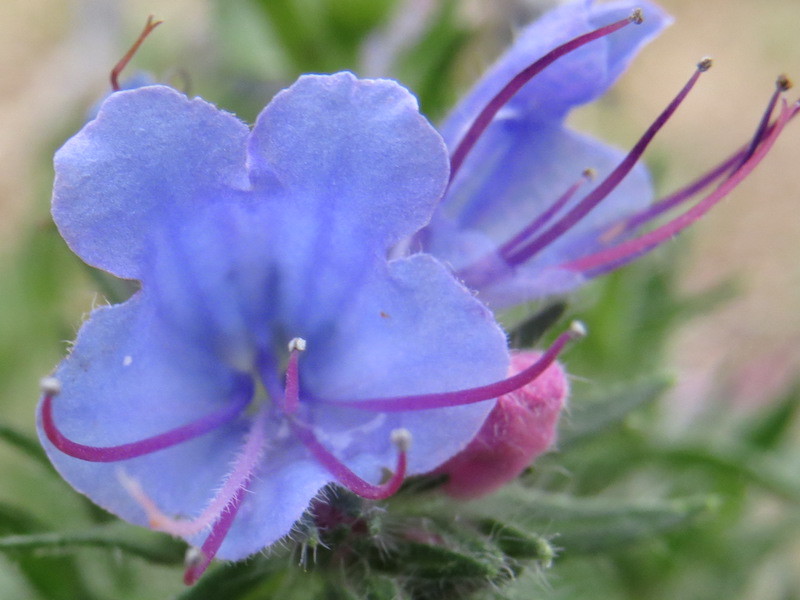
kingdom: Plantae
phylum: Tracheophyta
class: Magnoliopsida
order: Boraginales
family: Boraginaceae
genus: Echium
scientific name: Echium vulgare
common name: Common viper's bugloss
